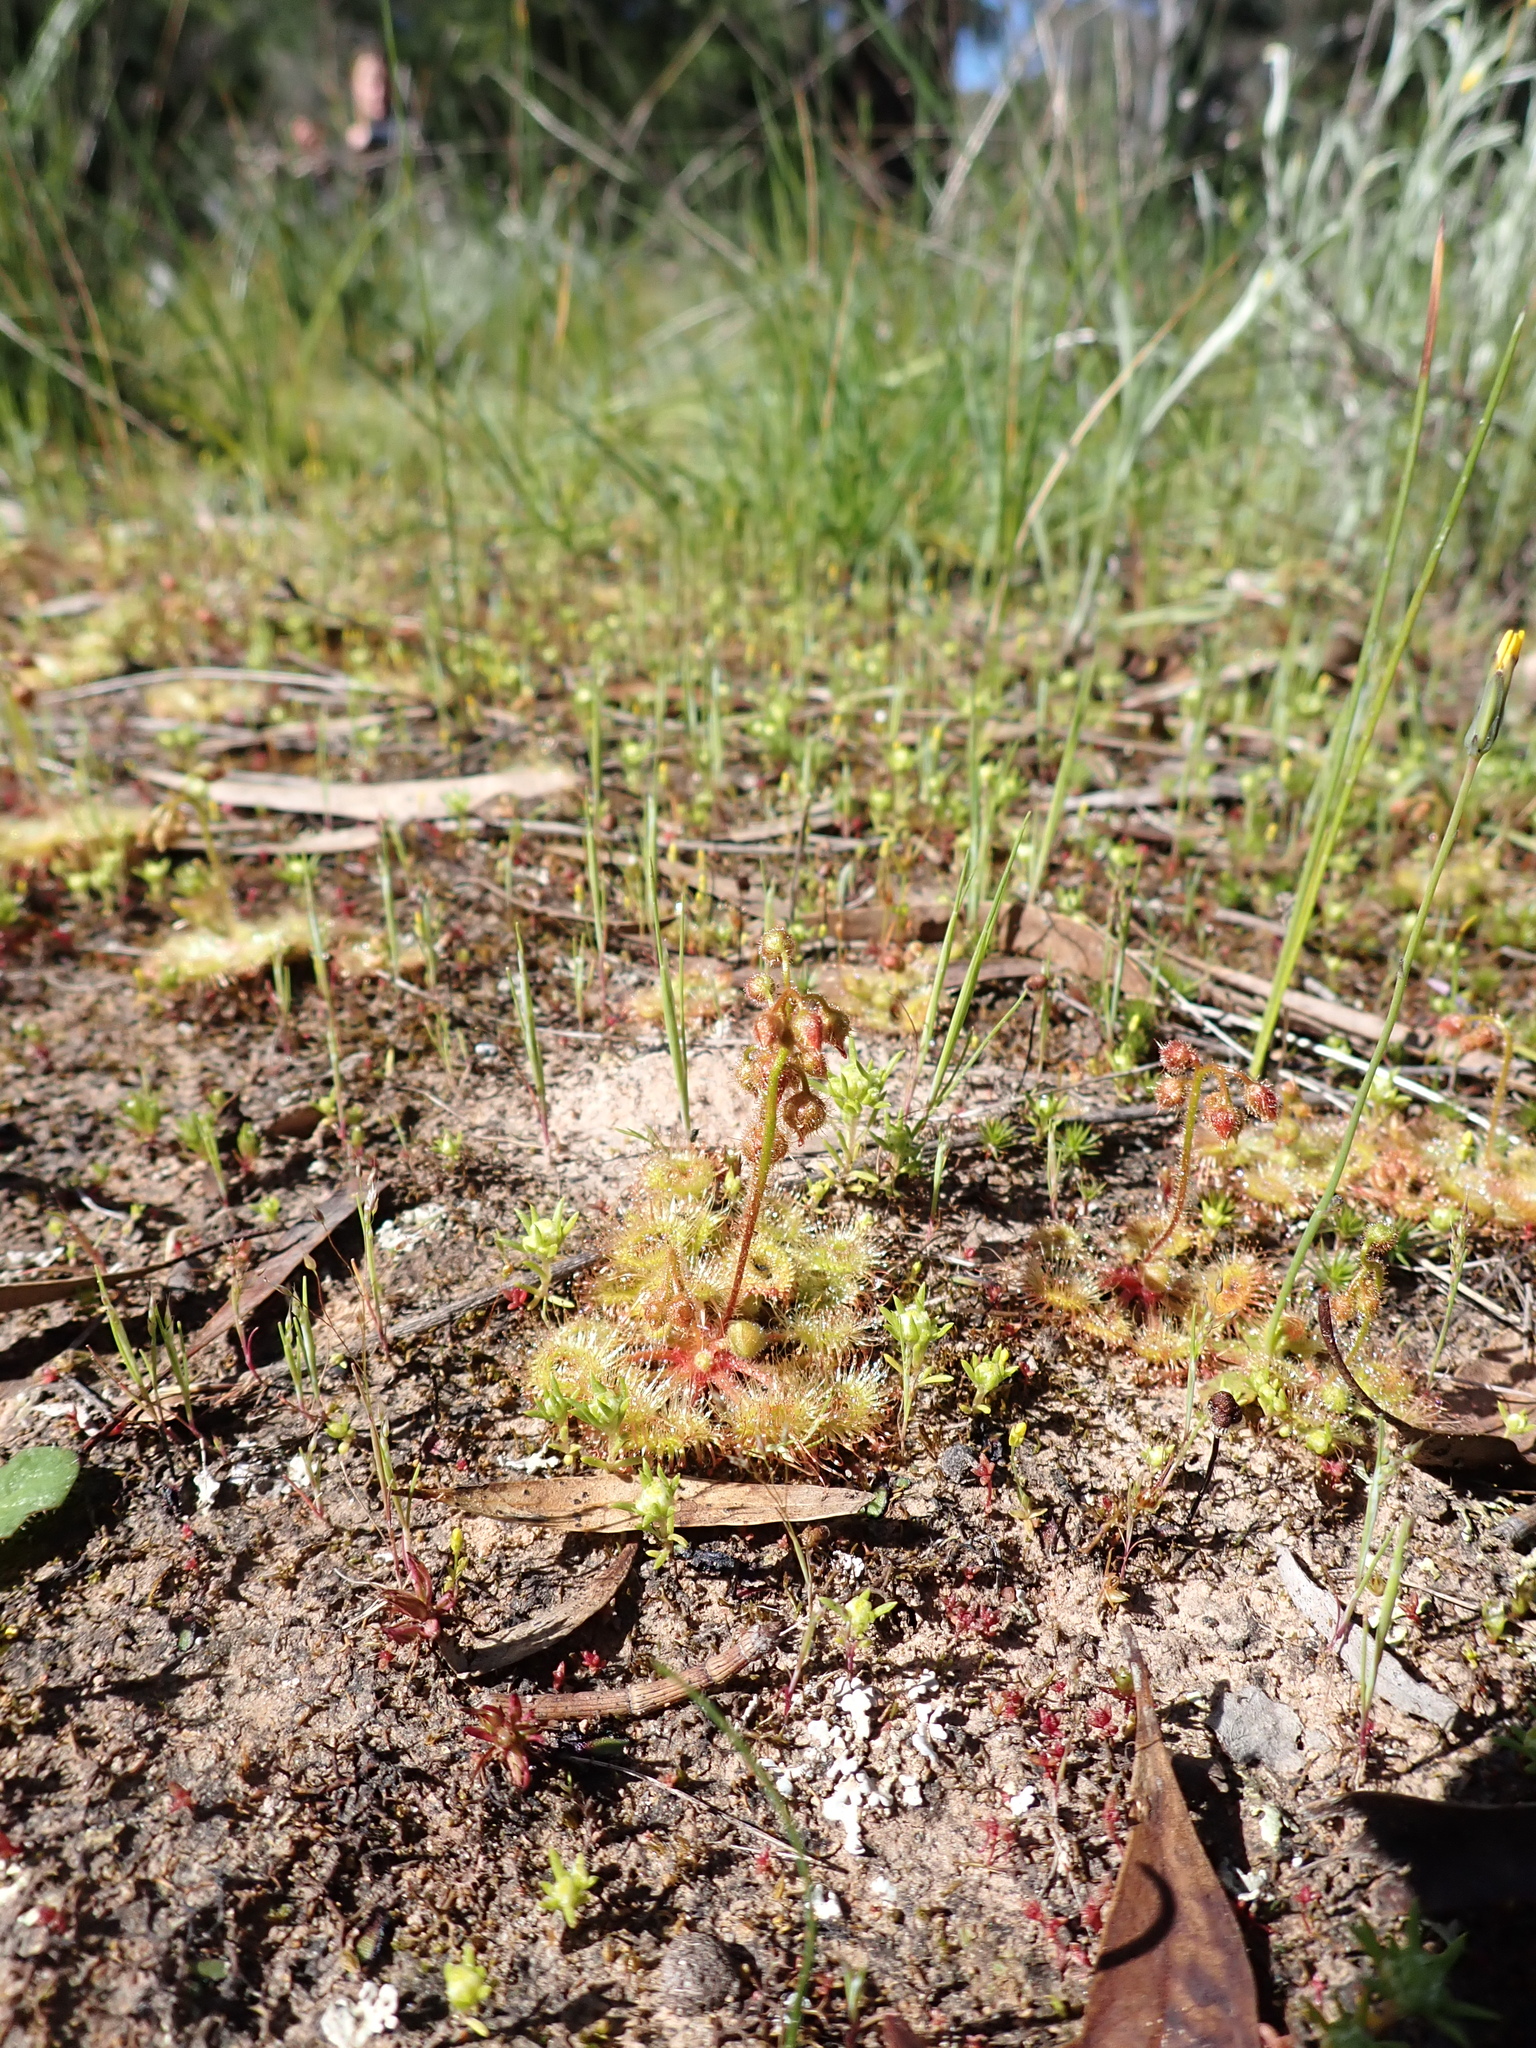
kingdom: Plantae
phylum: Tracheophyta
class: Magnoliopsida
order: Caryophyllales
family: Droseraceae
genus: Drosera
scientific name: Drosera glanduligera
